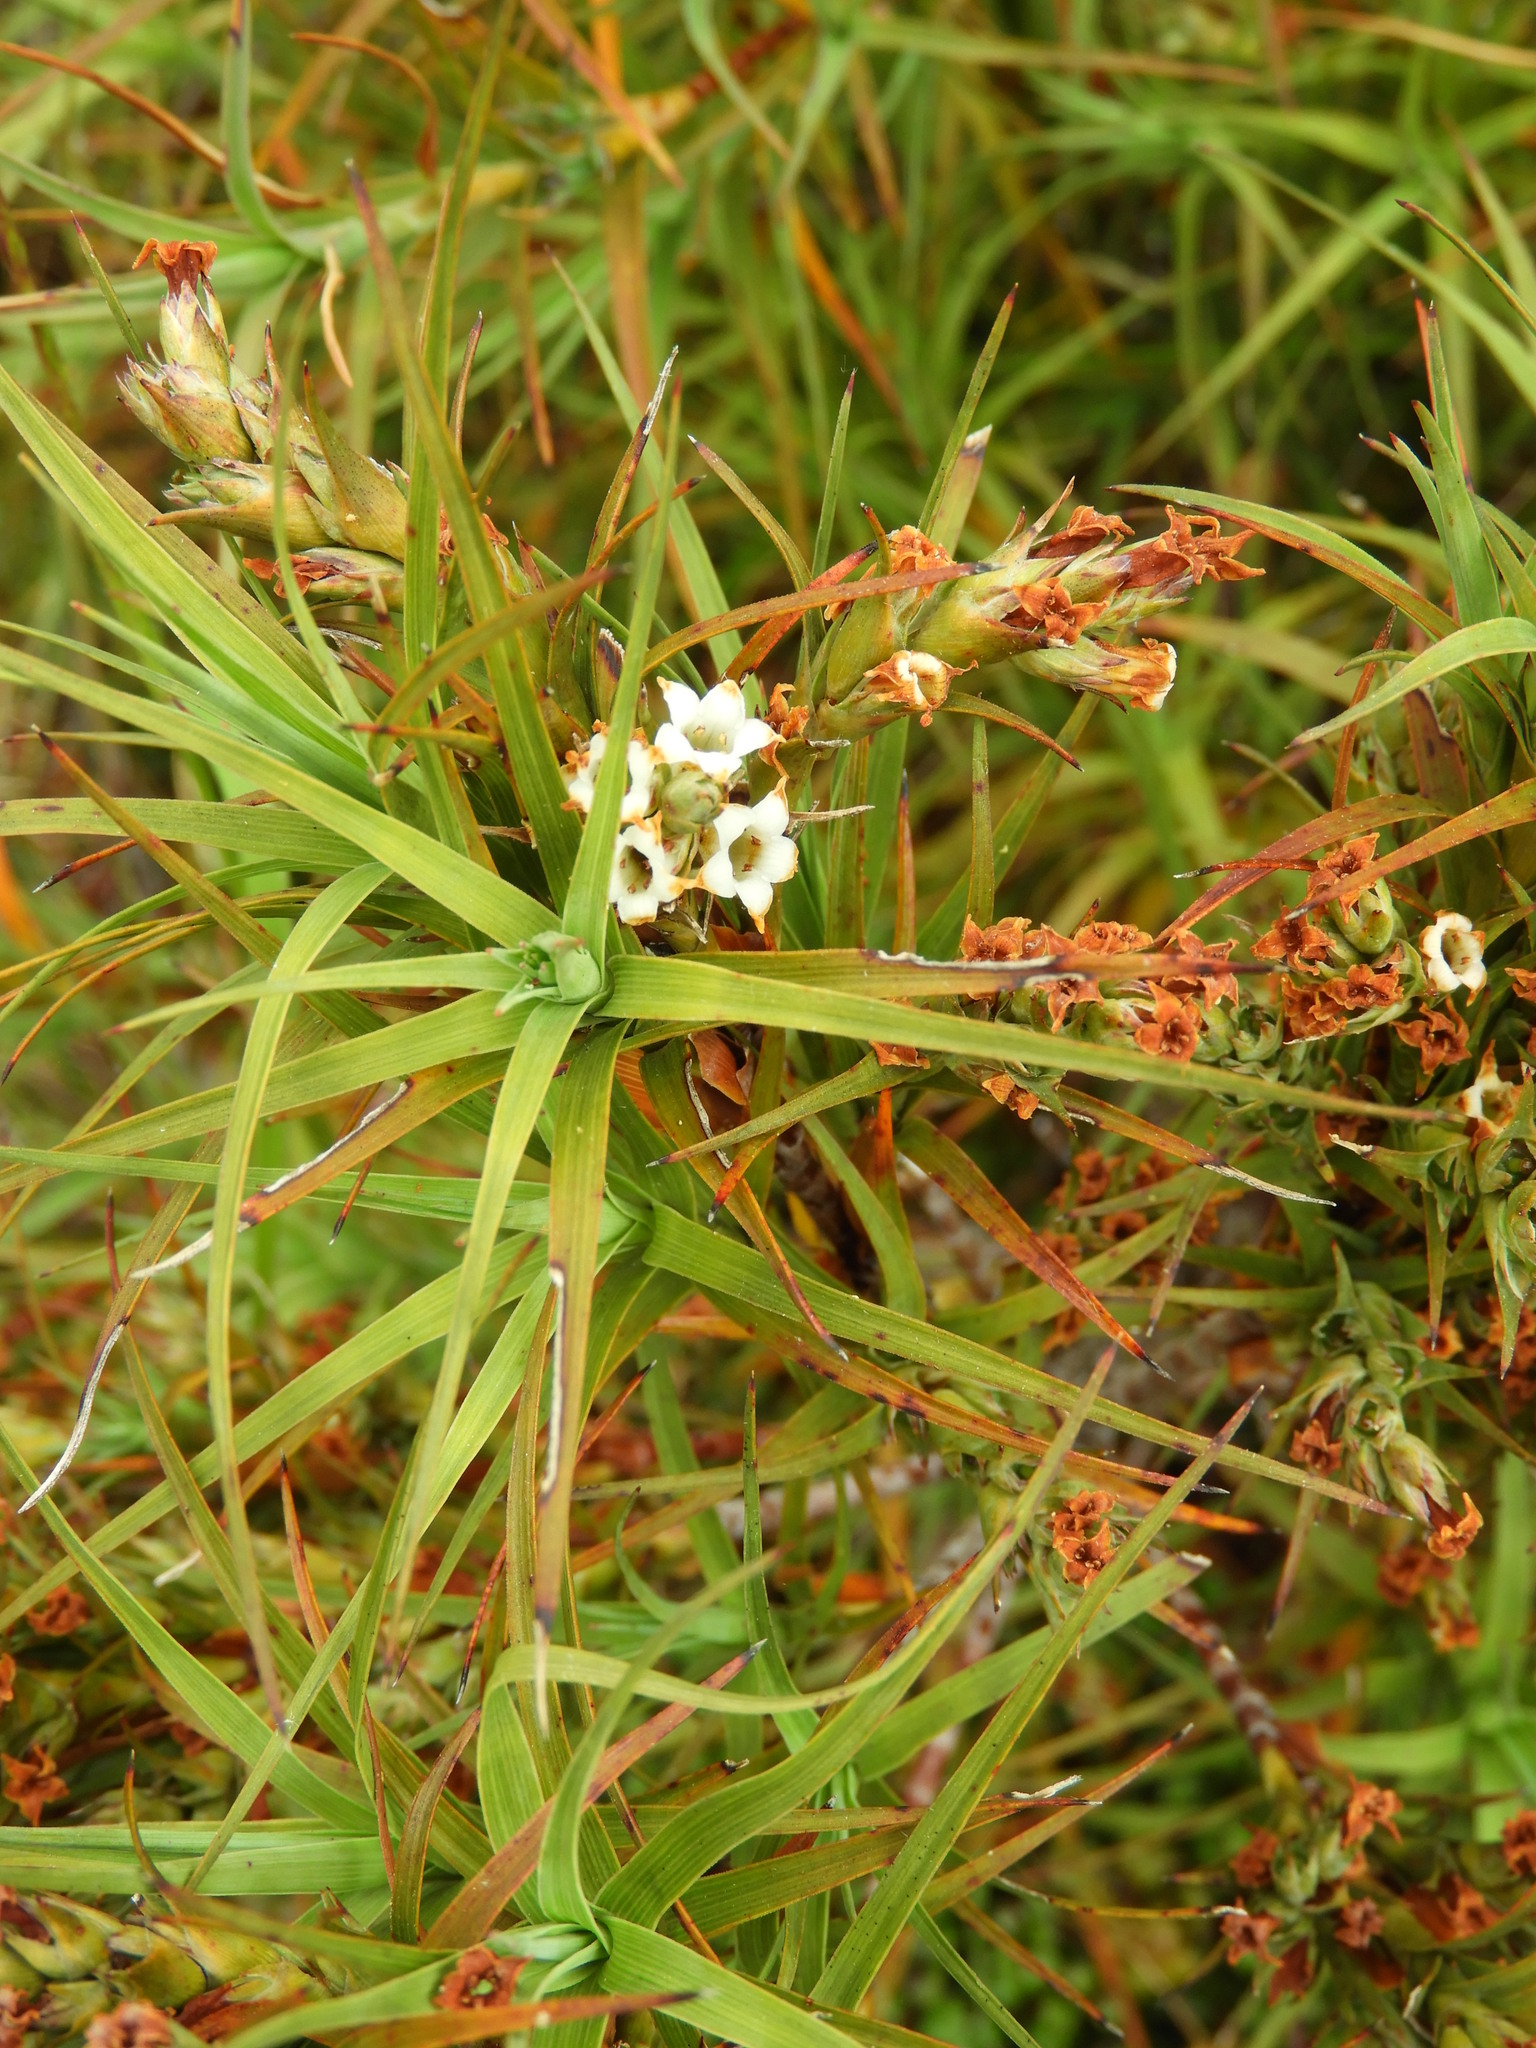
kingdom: Plantae
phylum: Tracheophyta
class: Magnoliopsida
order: Ericales
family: Ericaceae
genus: Dracophyllum
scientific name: Dracophyllum sinclairii
